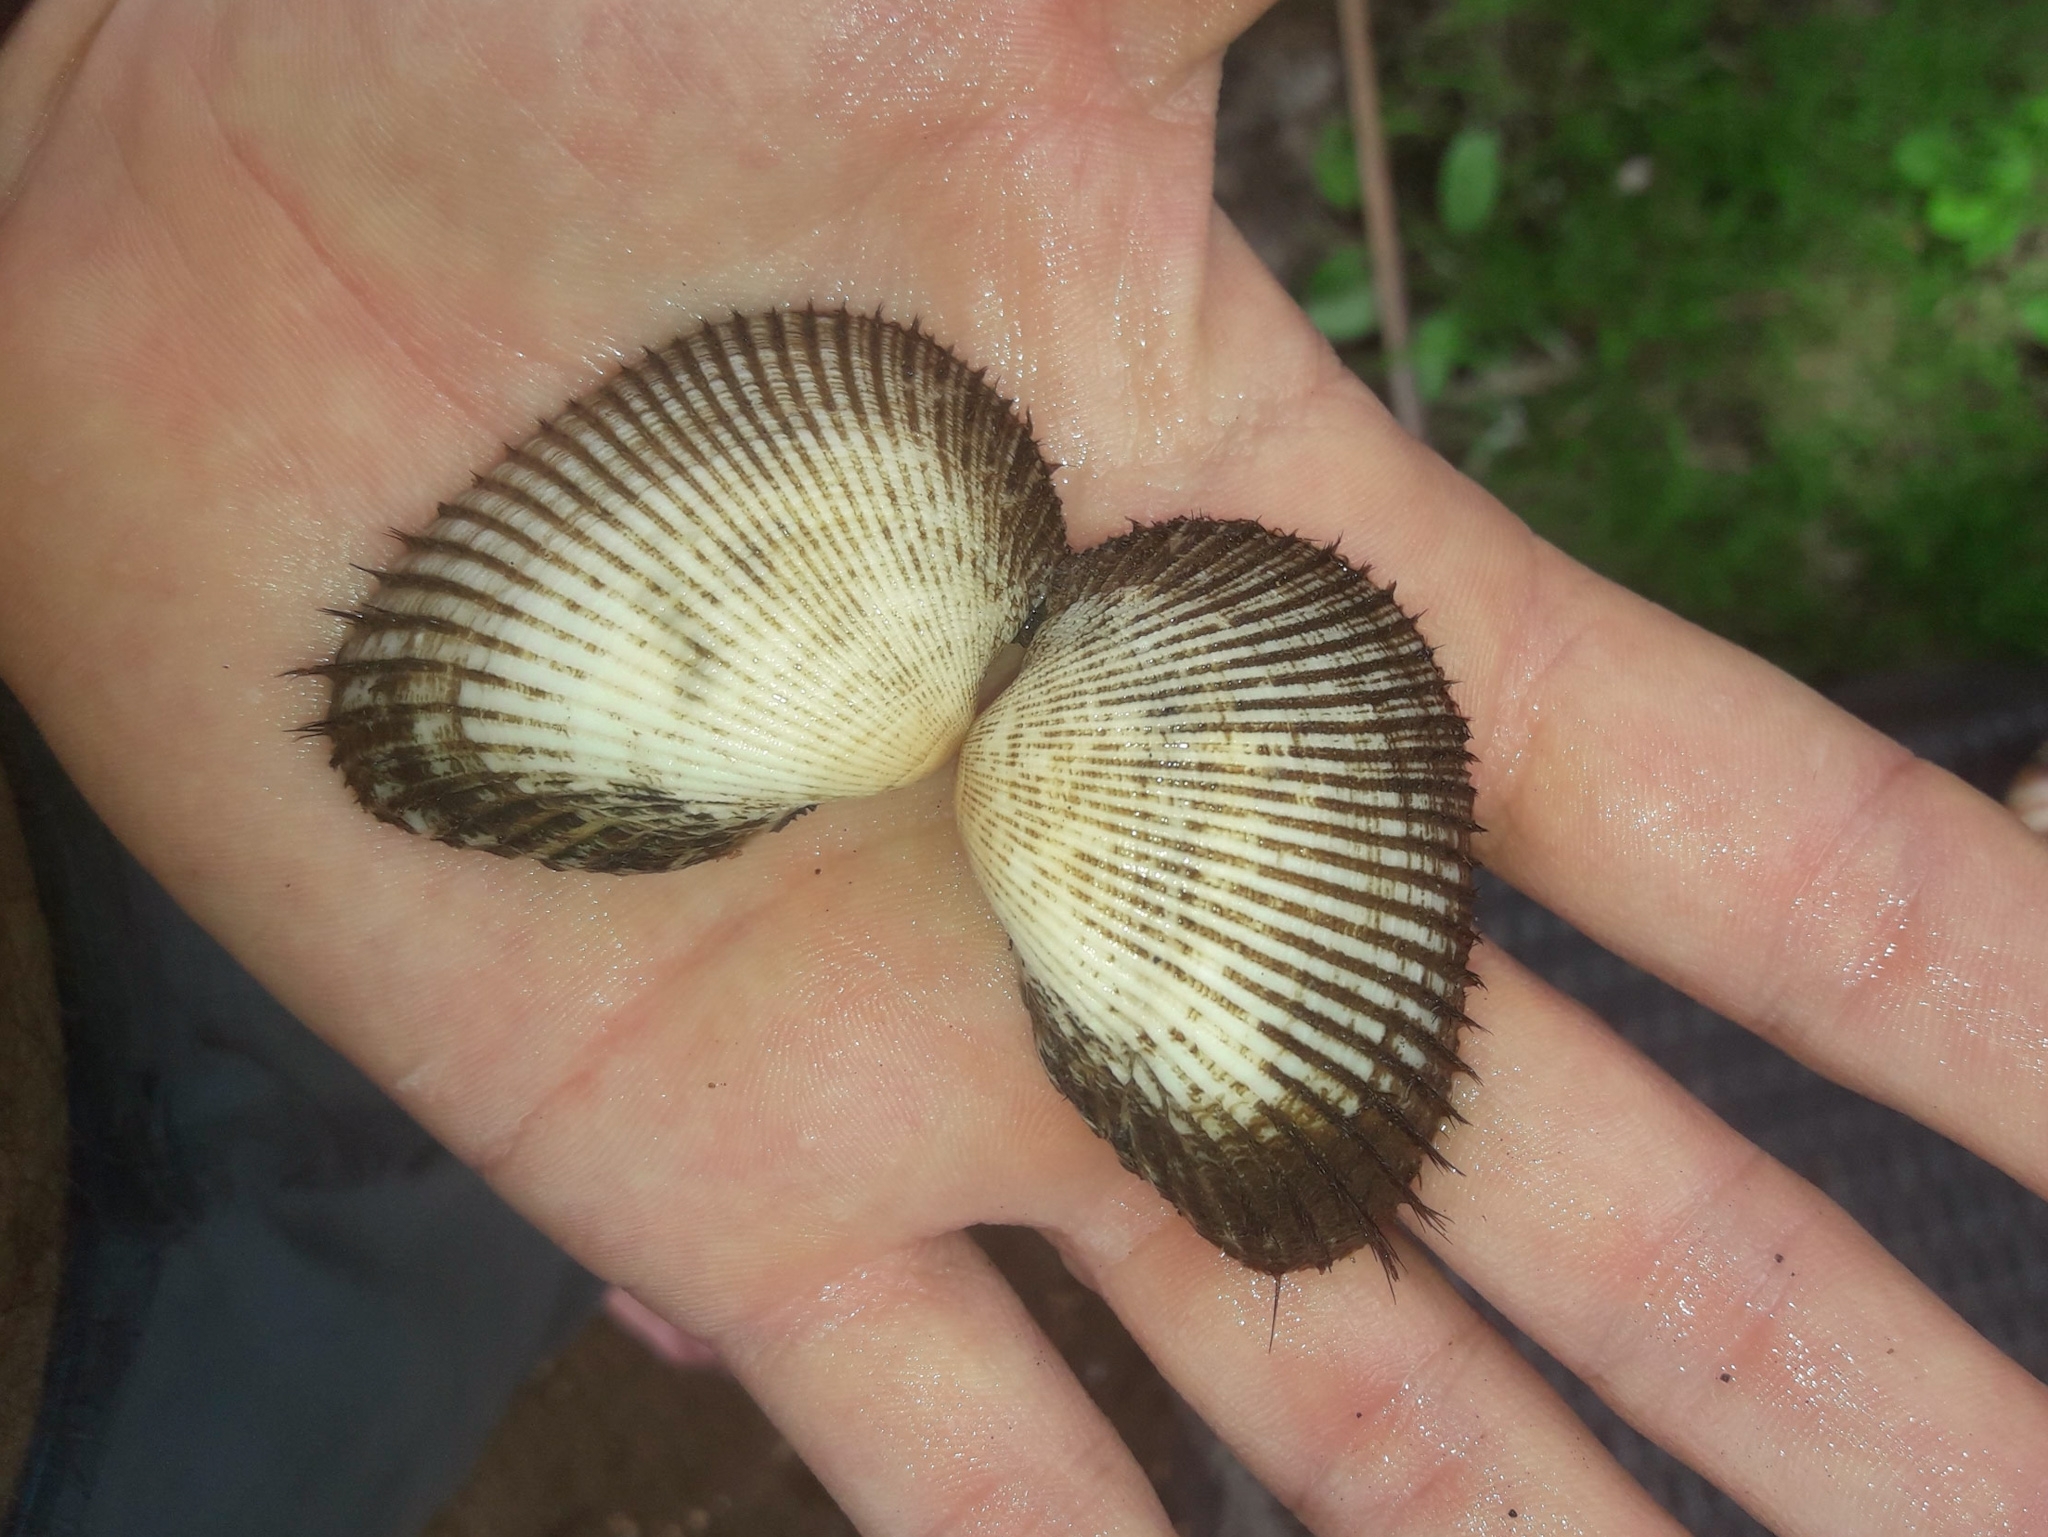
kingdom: Animalia
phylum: Mollusca
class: Bivalvia
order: Arcida
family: Arcidae
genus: Anadara
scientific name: Anadara antiquata
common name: Antique ark
